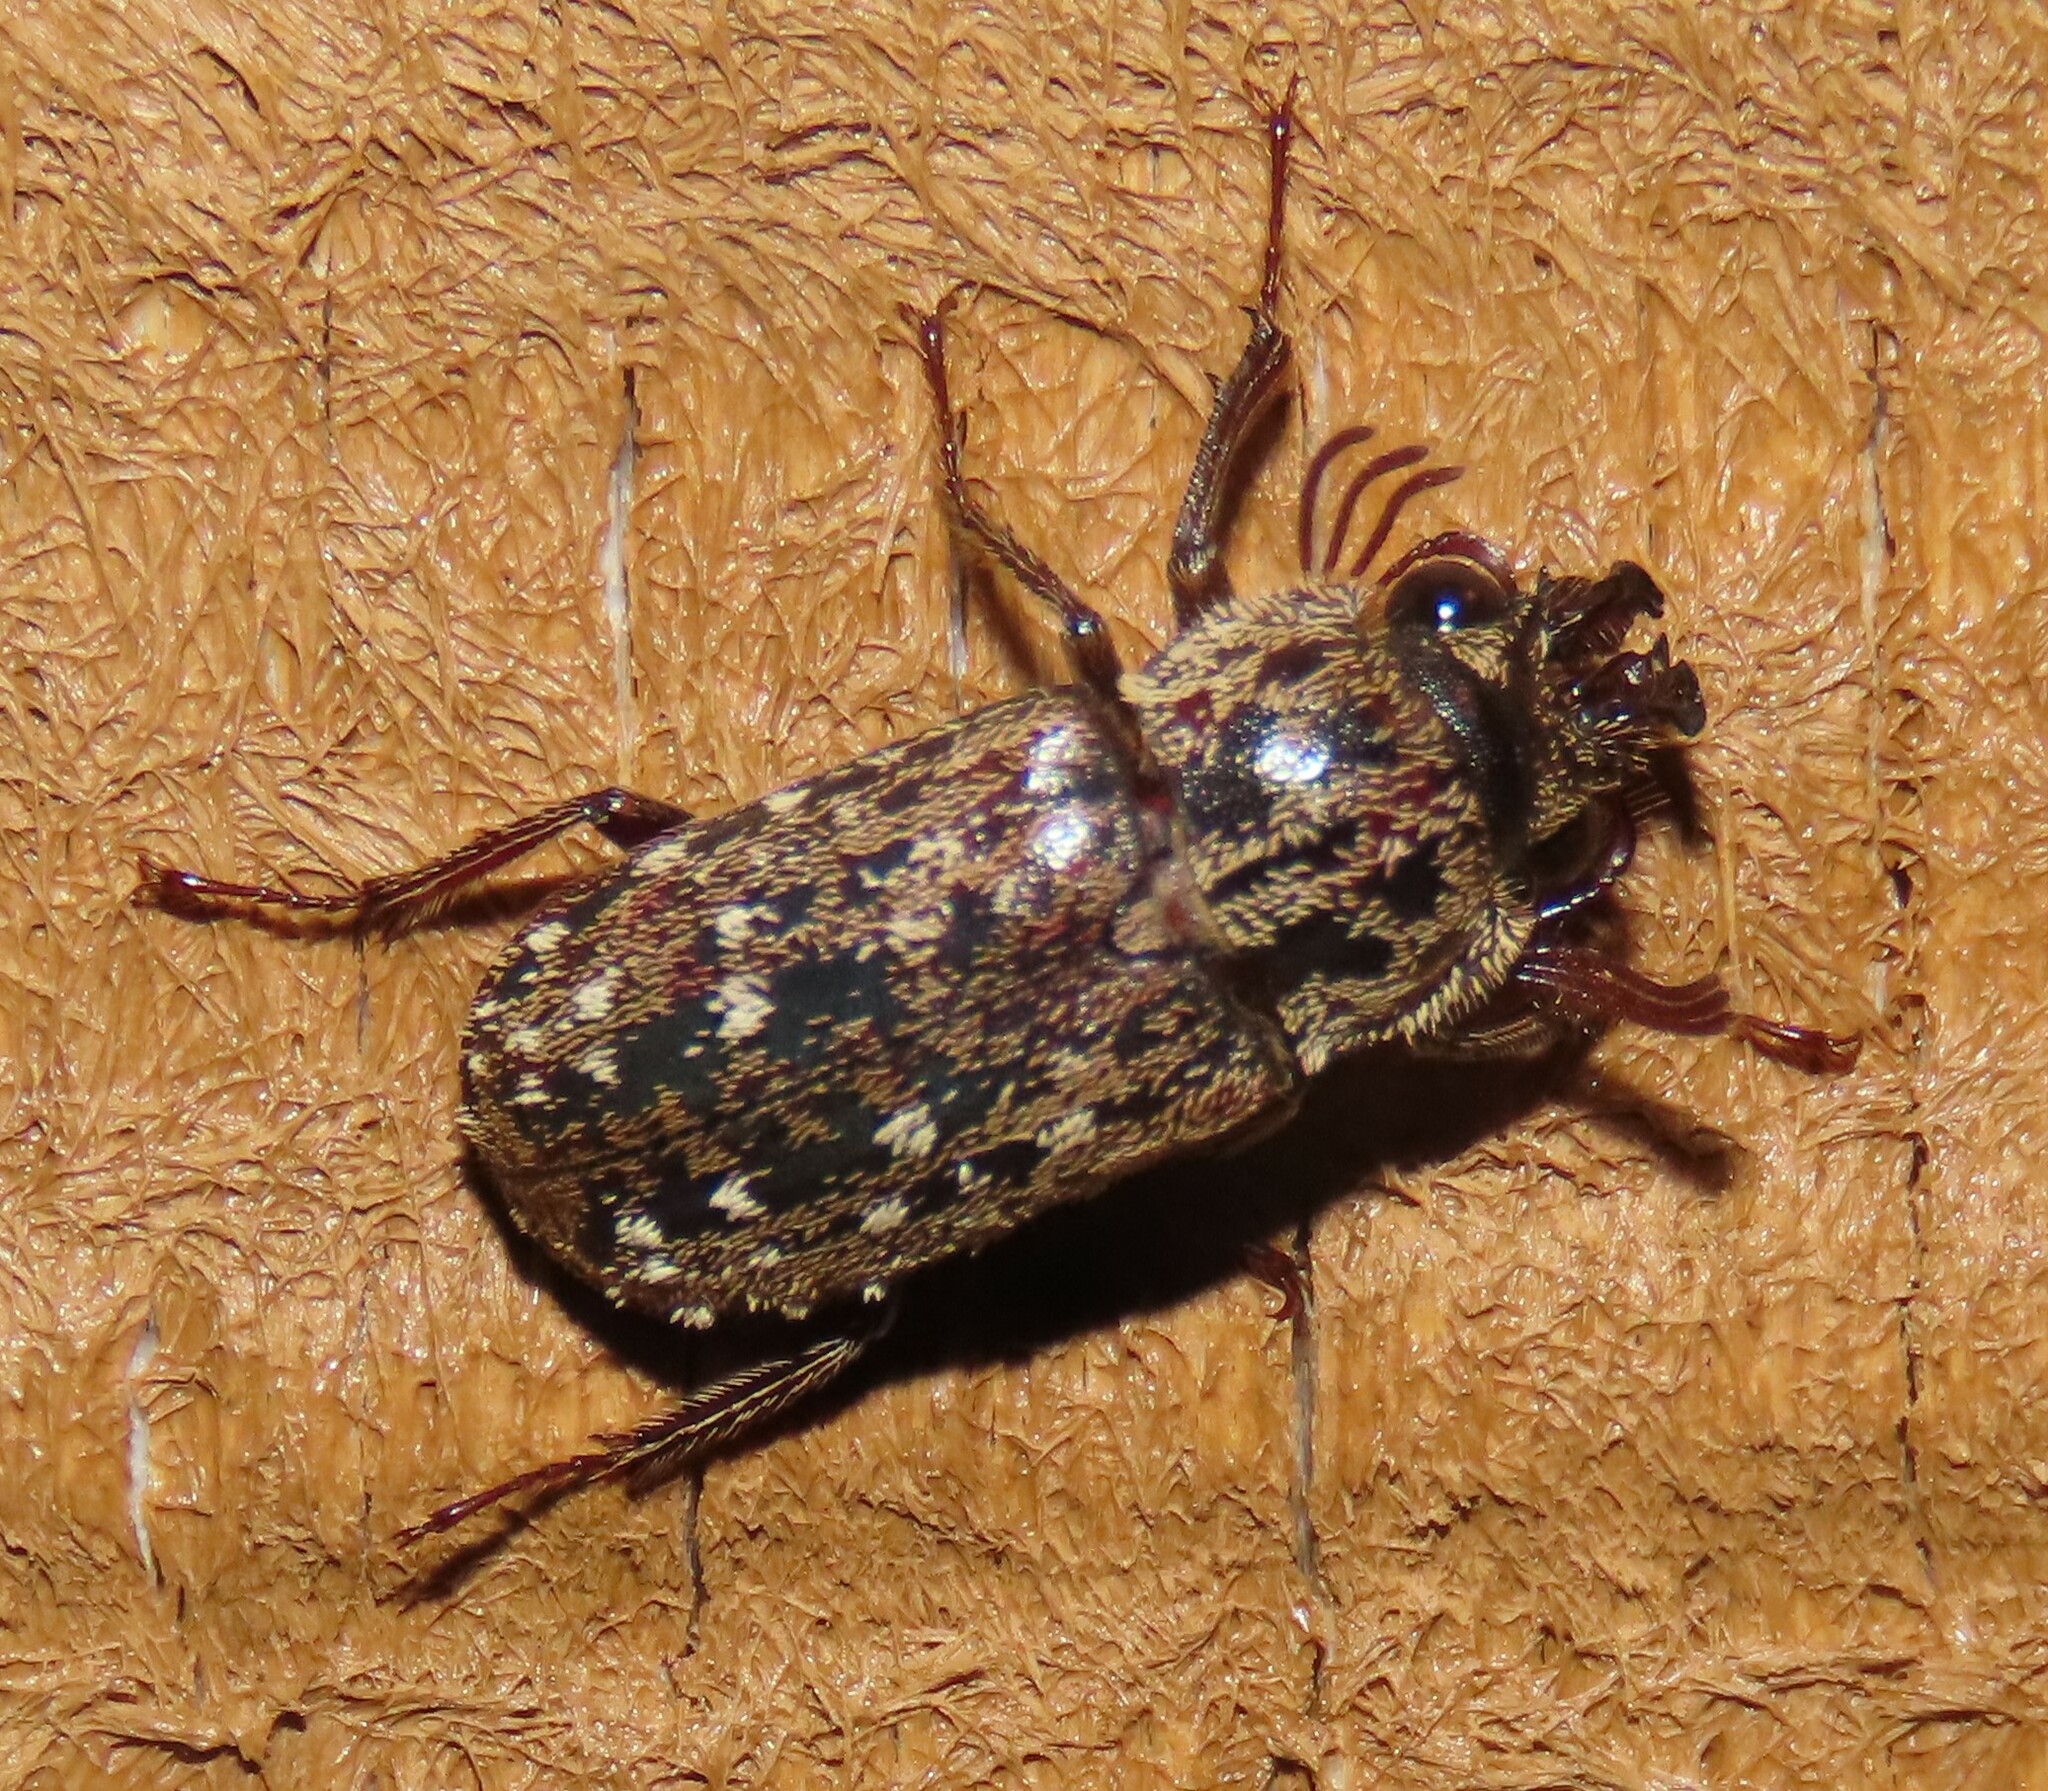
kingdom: Animalia
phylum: Arthropoda
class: Insecta
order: Coleoptera
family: Lucanidae
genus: Mitophyllus
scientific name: Mitophyllus irroratus
